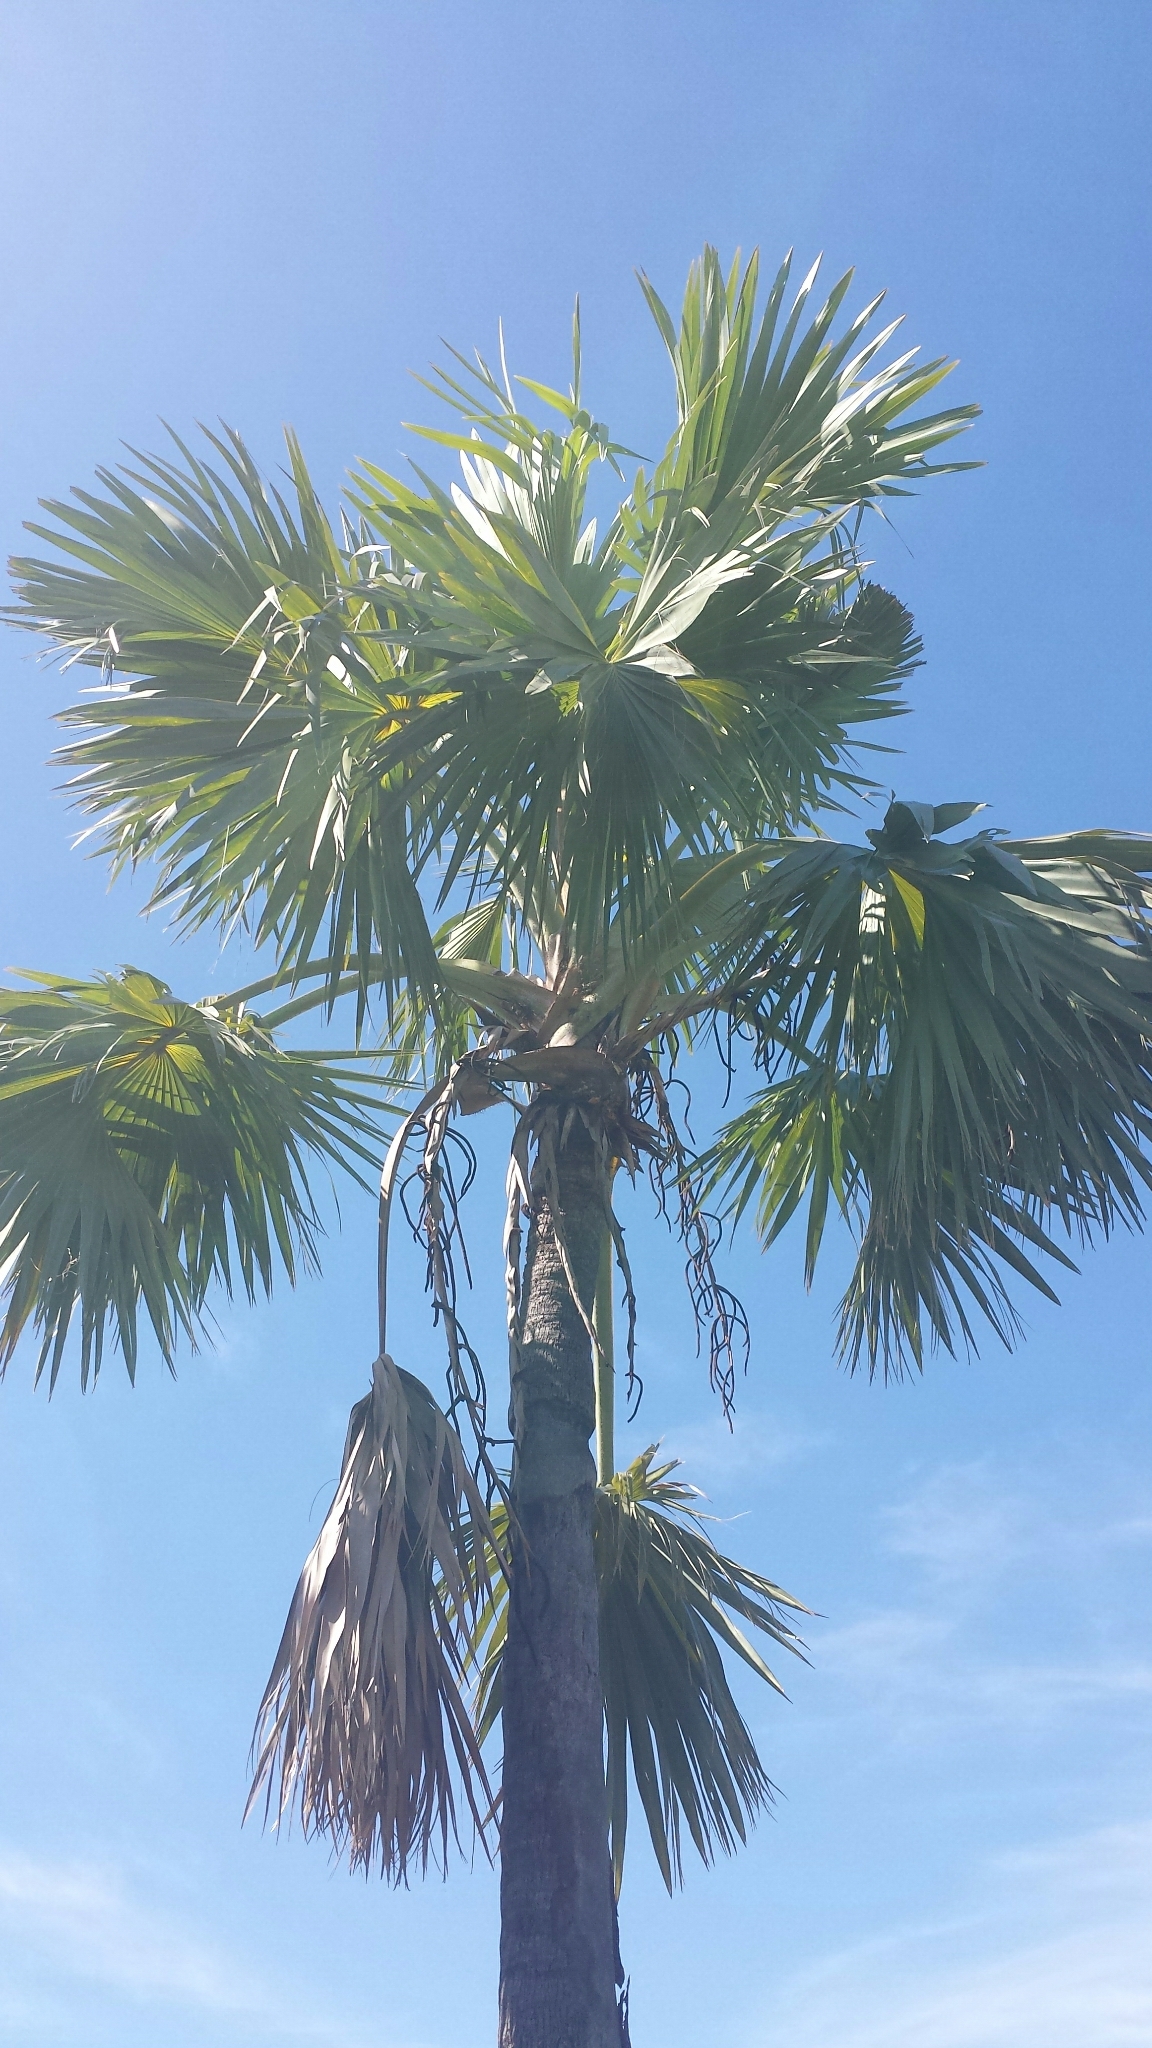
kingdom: Plantae
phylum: Tracheophyta
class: Liliopsida
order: Arecales
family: Arecaceae
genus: Bismarckia
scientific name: Bismarckia nobilis
